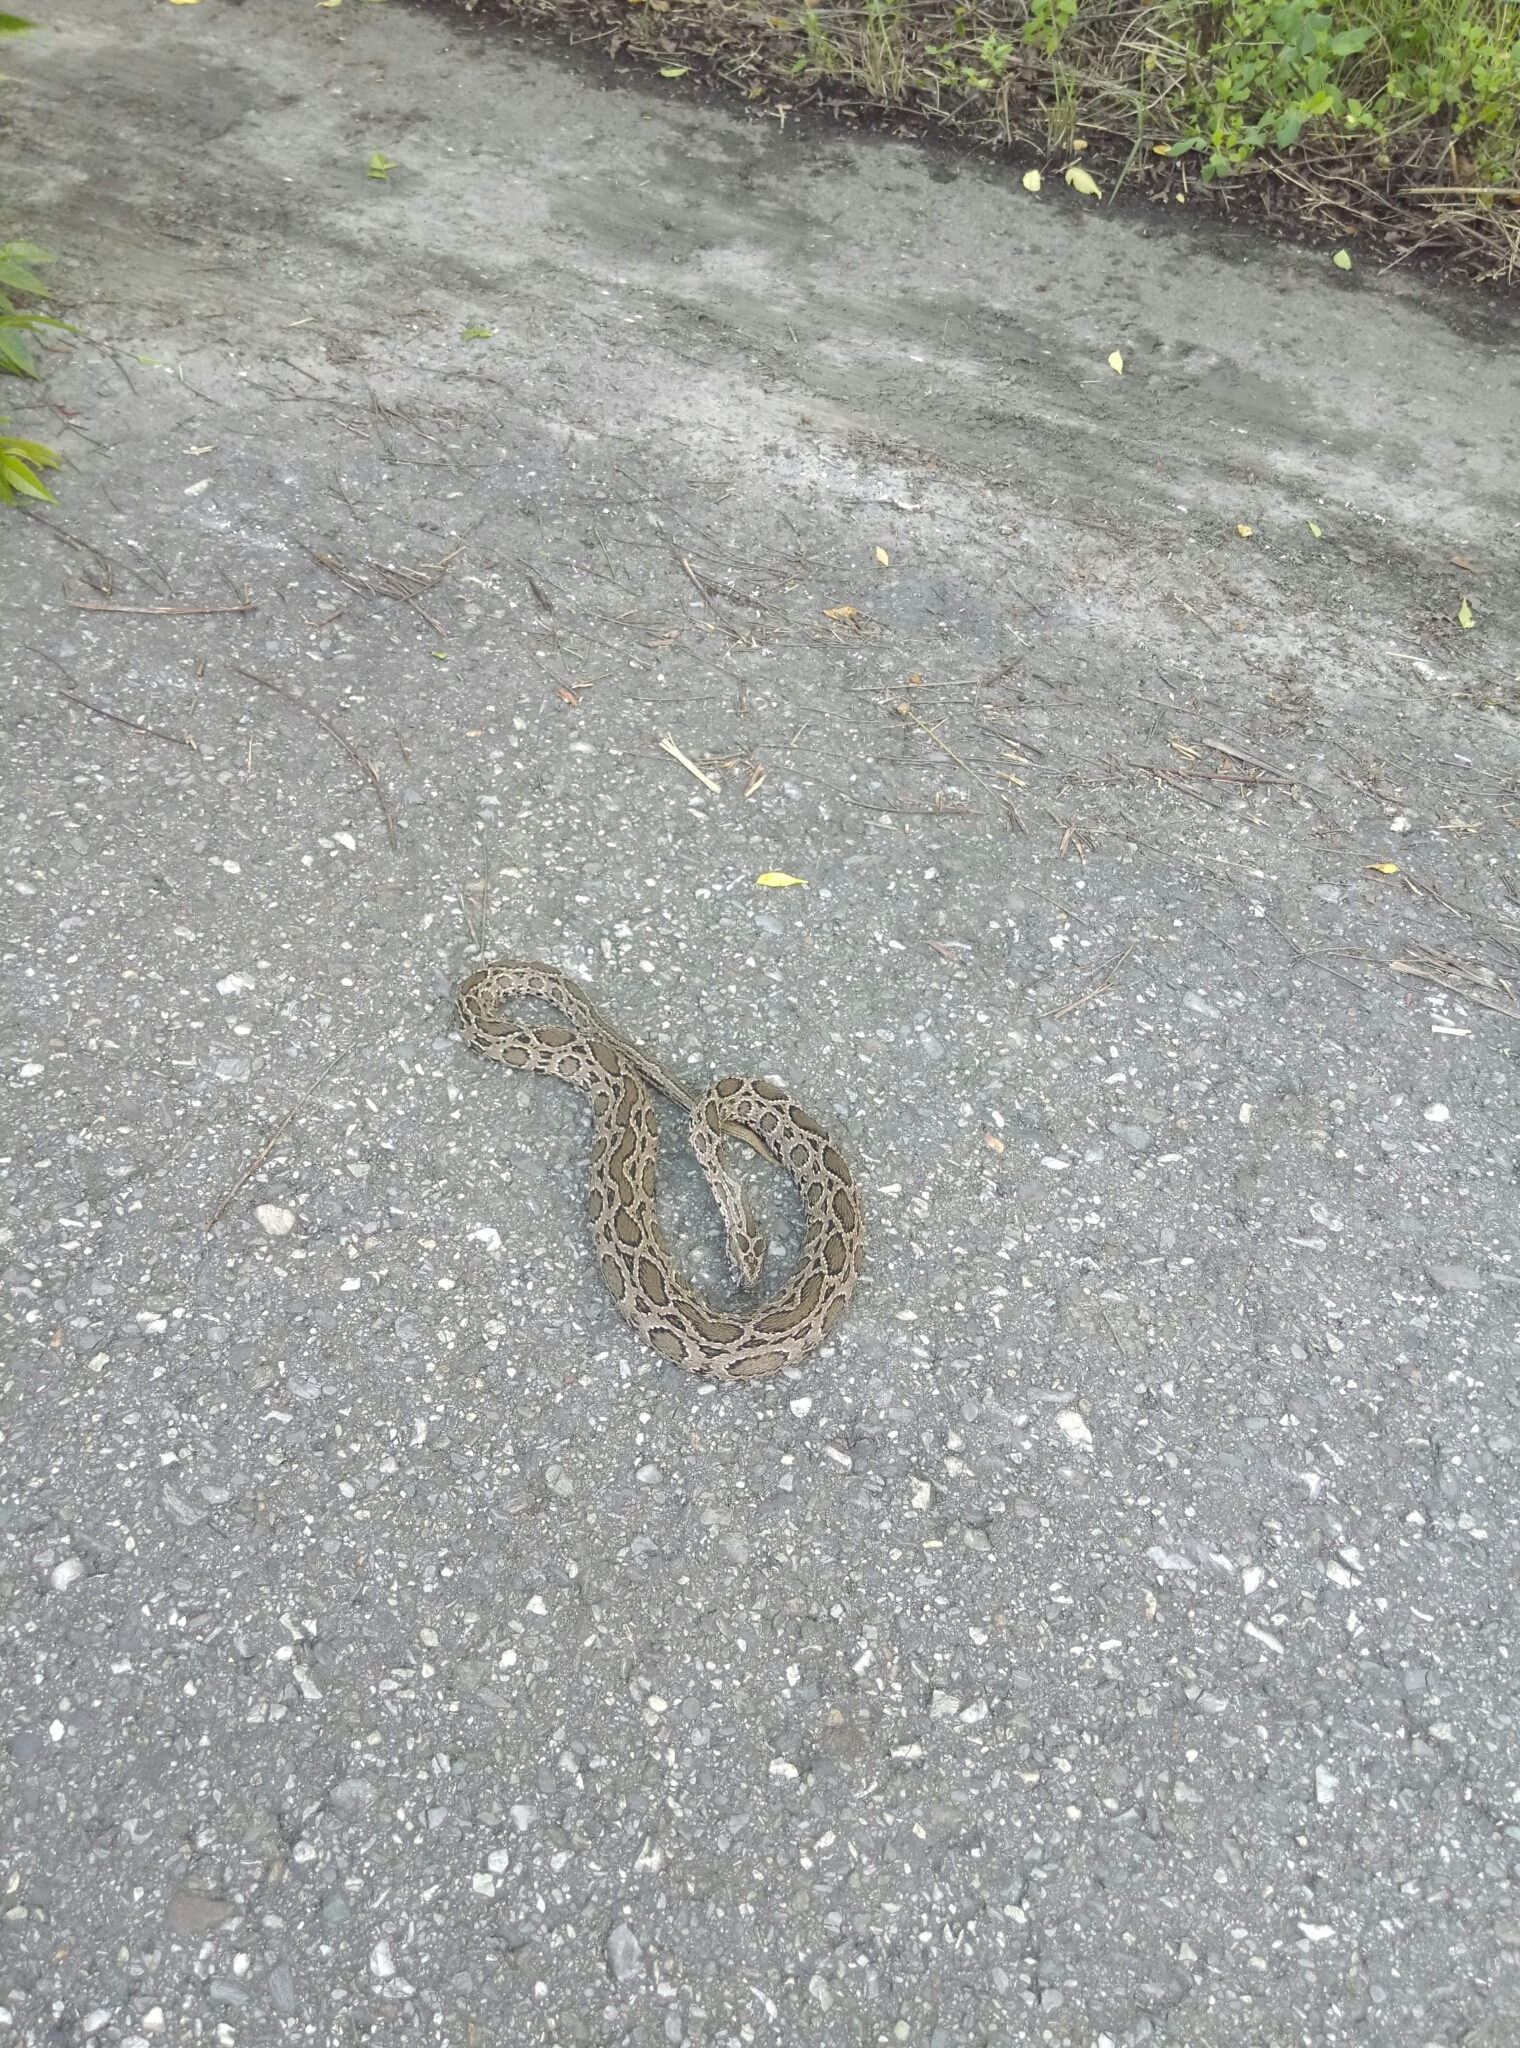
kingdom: Animalia
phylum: Chordata
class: Squamata
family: Viperidae
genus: Daboia
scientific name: Daboia siamensis
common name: Eastern russell's viper
